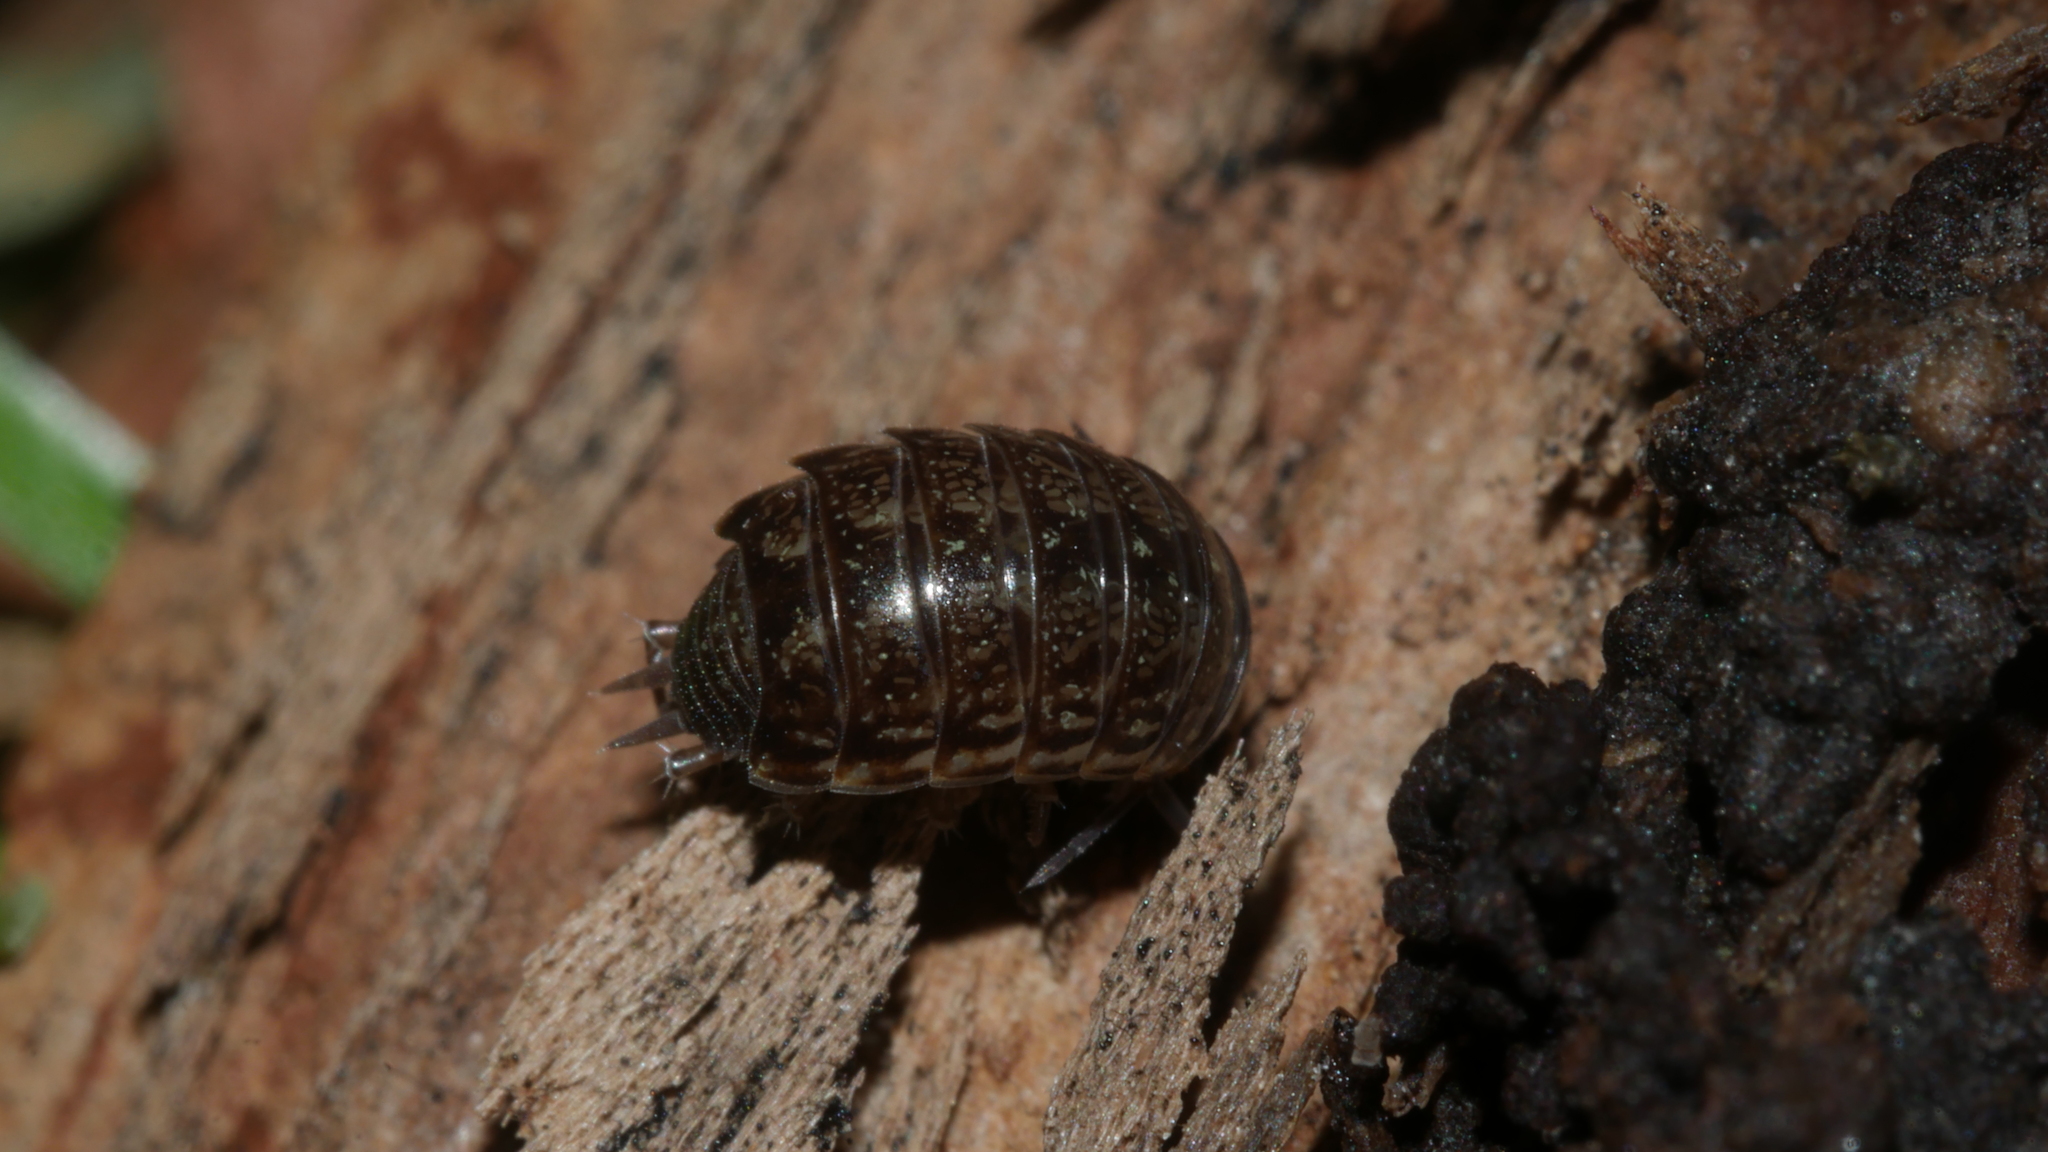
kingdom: Animalia
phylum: Arthropoda
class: Malacostraca
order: Isopoda
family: Philosciidae
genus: Philoscia
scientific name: Philoscia muscorum
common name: Common striped woodlouse
